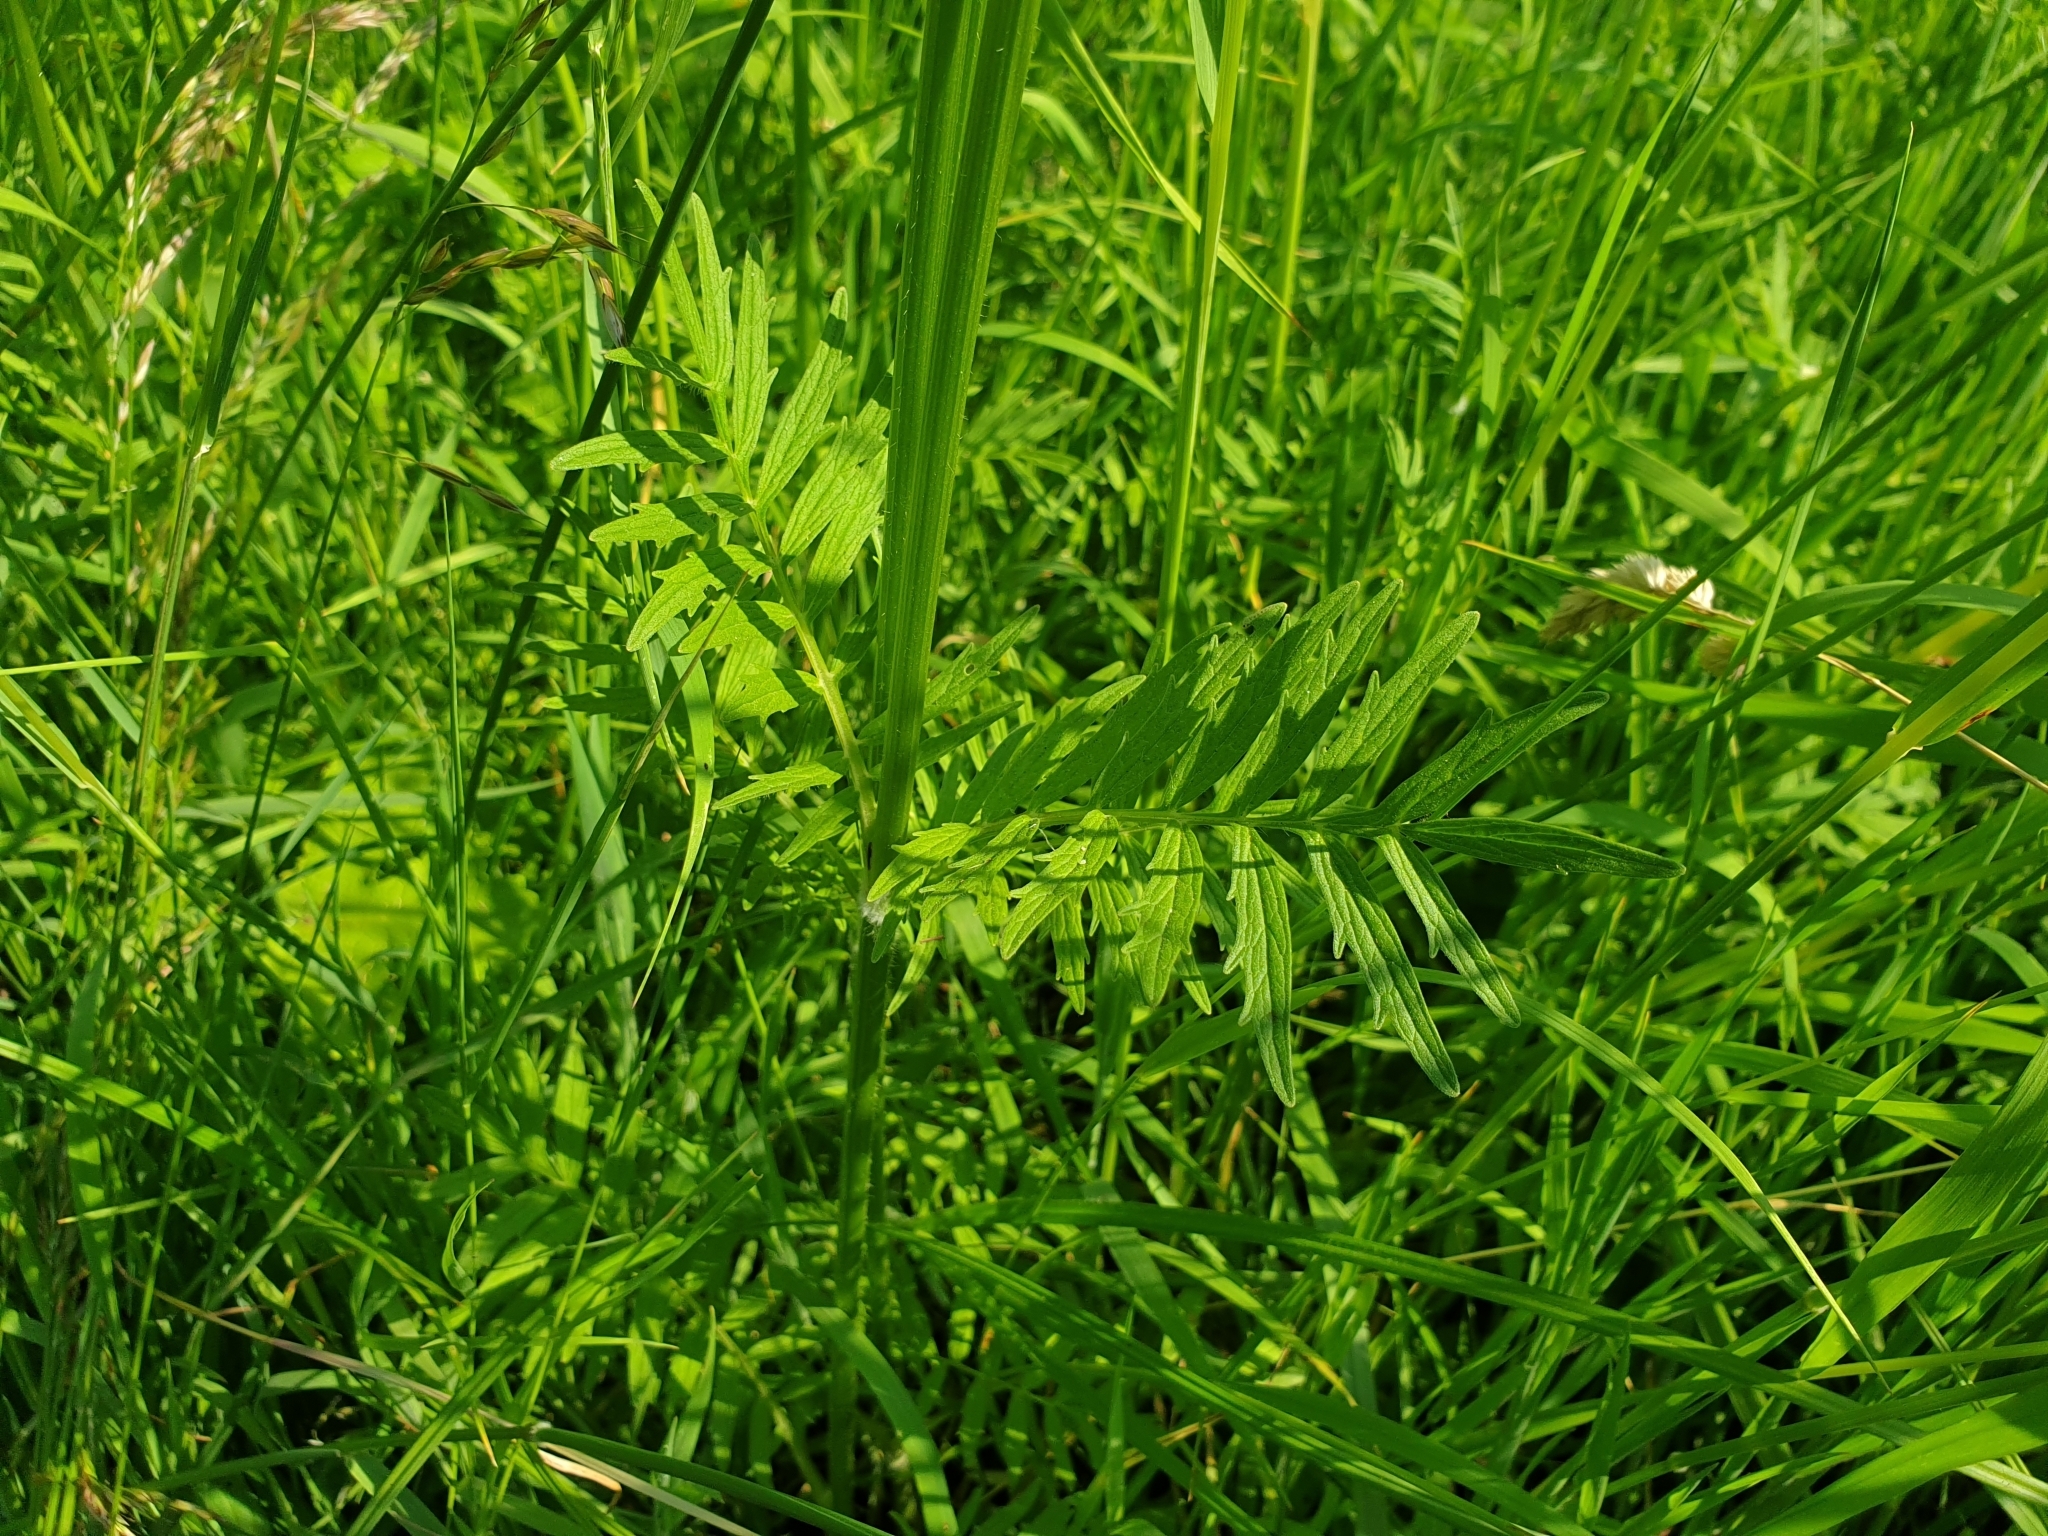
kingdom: Plantae
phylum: Tracheophyta
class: Magnoliopsida
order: Dipsacales
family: Caprifoliaceae
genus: Valeriana
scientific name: Valeriana officinalis
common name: Common valerian
